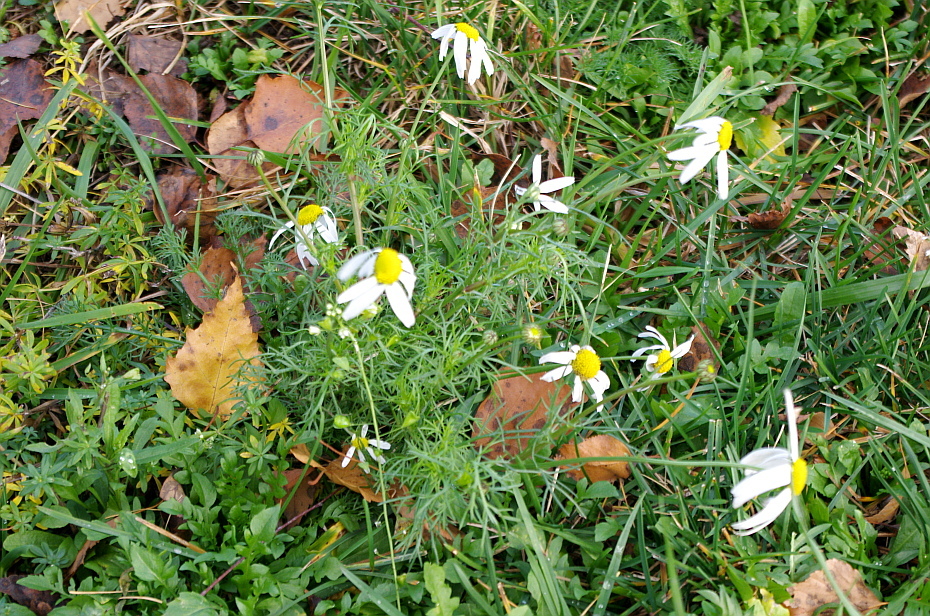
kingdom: Plantae
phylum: Tracheophyta
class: Magnoliopsida
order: Asterales
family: Asteraceae
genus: Tripleurospermum
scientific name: Tripleurospermum inodorum
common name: Scentless mayweed
